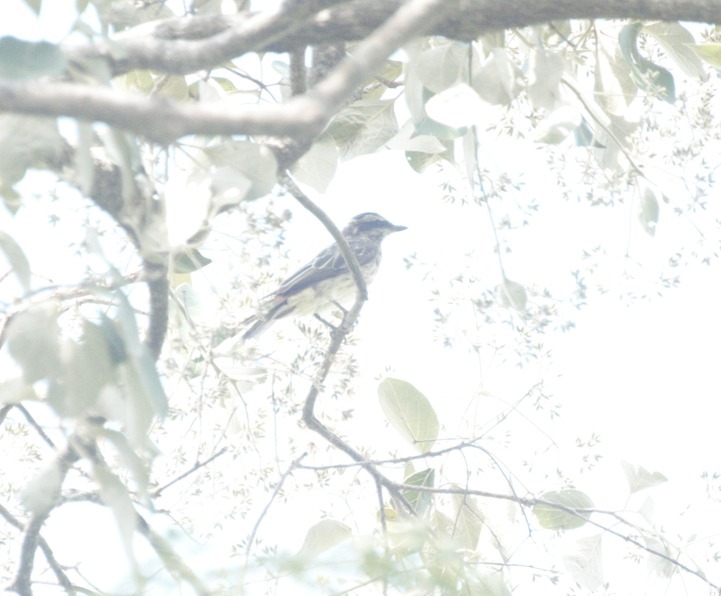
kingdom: Animalia
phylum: Chordata
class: Aves
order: Passeriformes
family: Tyrannidae
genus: Myiodynastes
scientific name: Myiodynastes maculatus
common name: Streaked flycatcher
